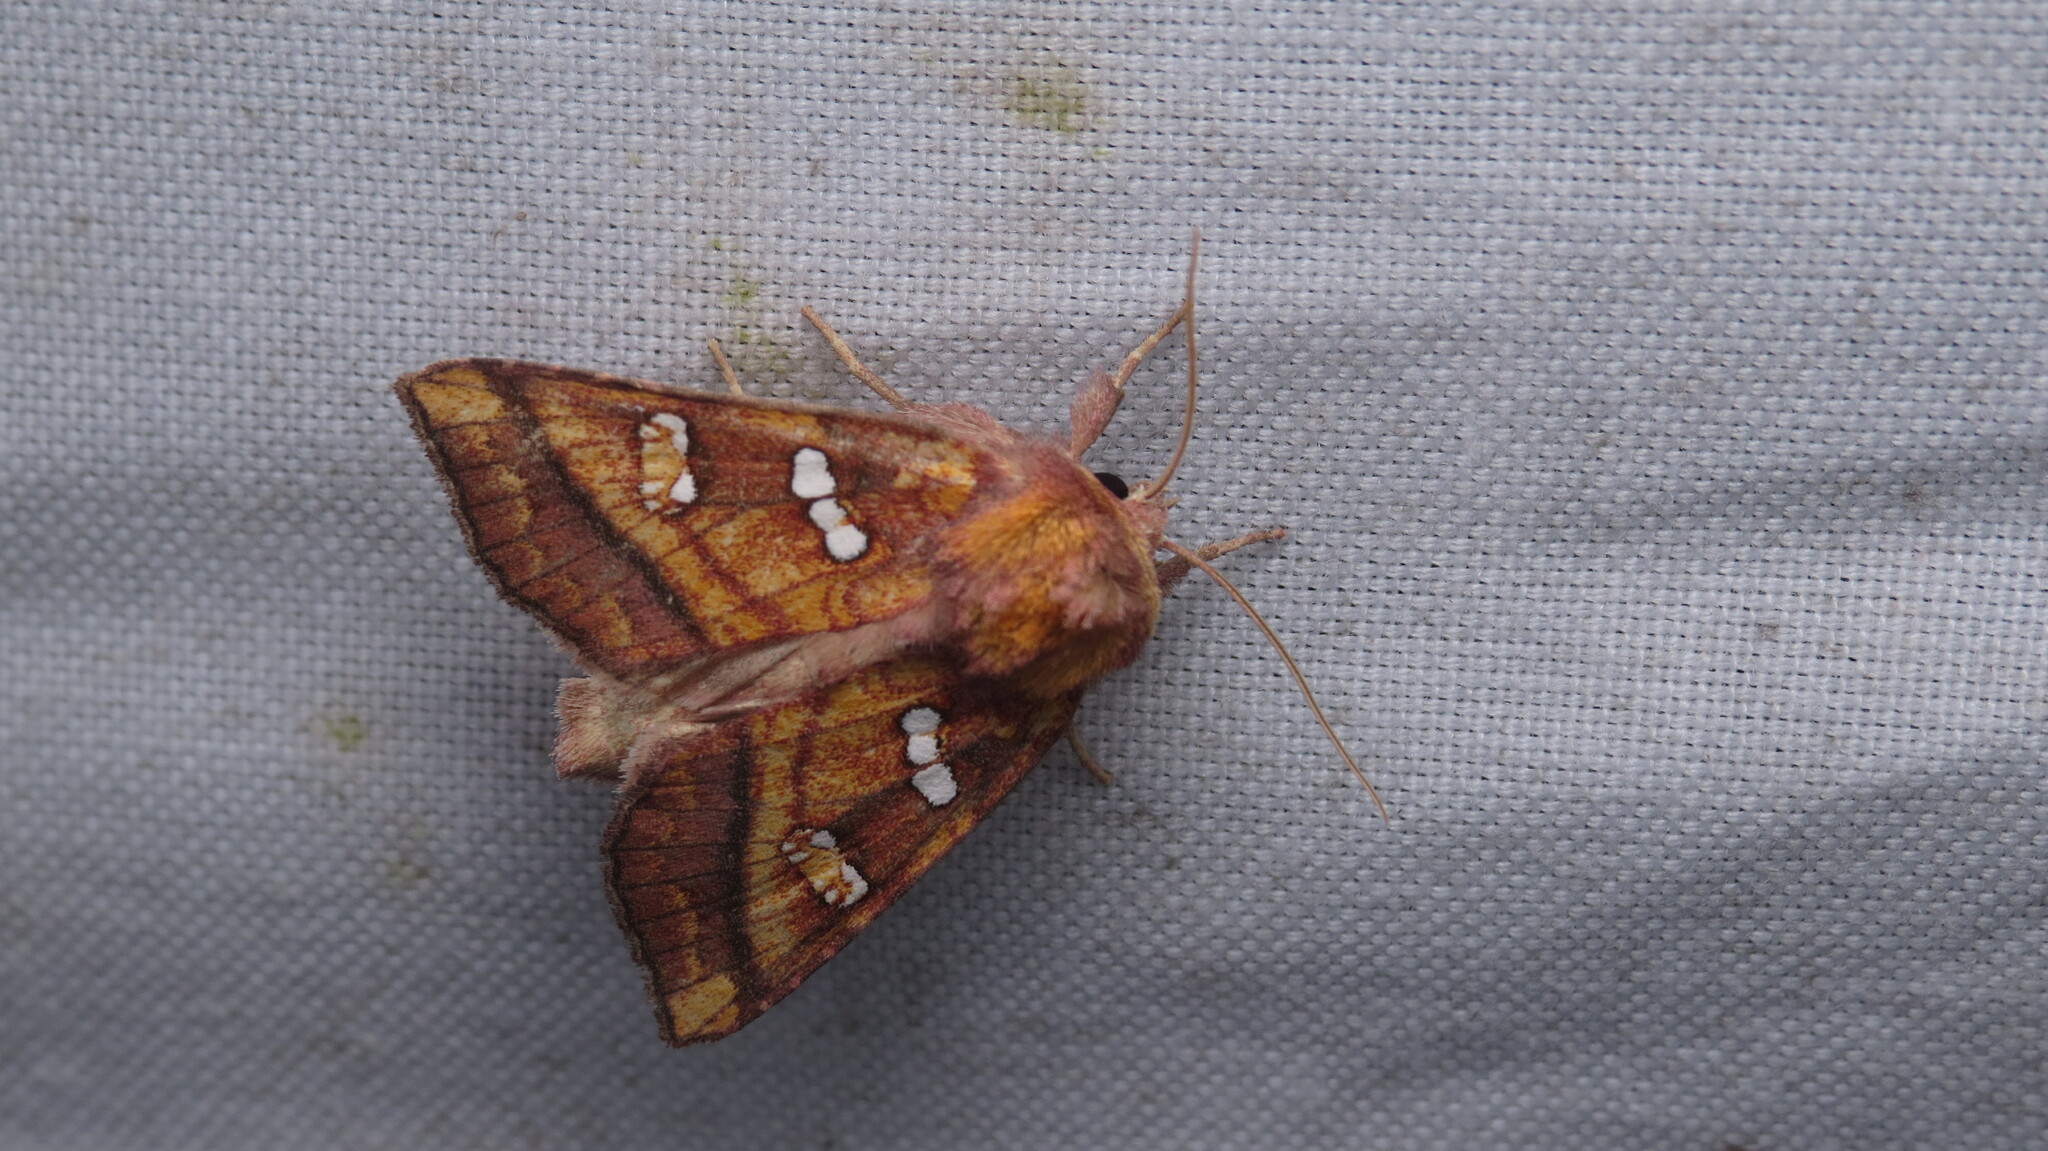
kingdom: Animalia
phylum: Arthropoda
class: Insecta
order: Lepidoptera
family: Noctuidae
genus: Papaipema
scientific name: Papaipema pterisii
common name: Bracken borer moth
